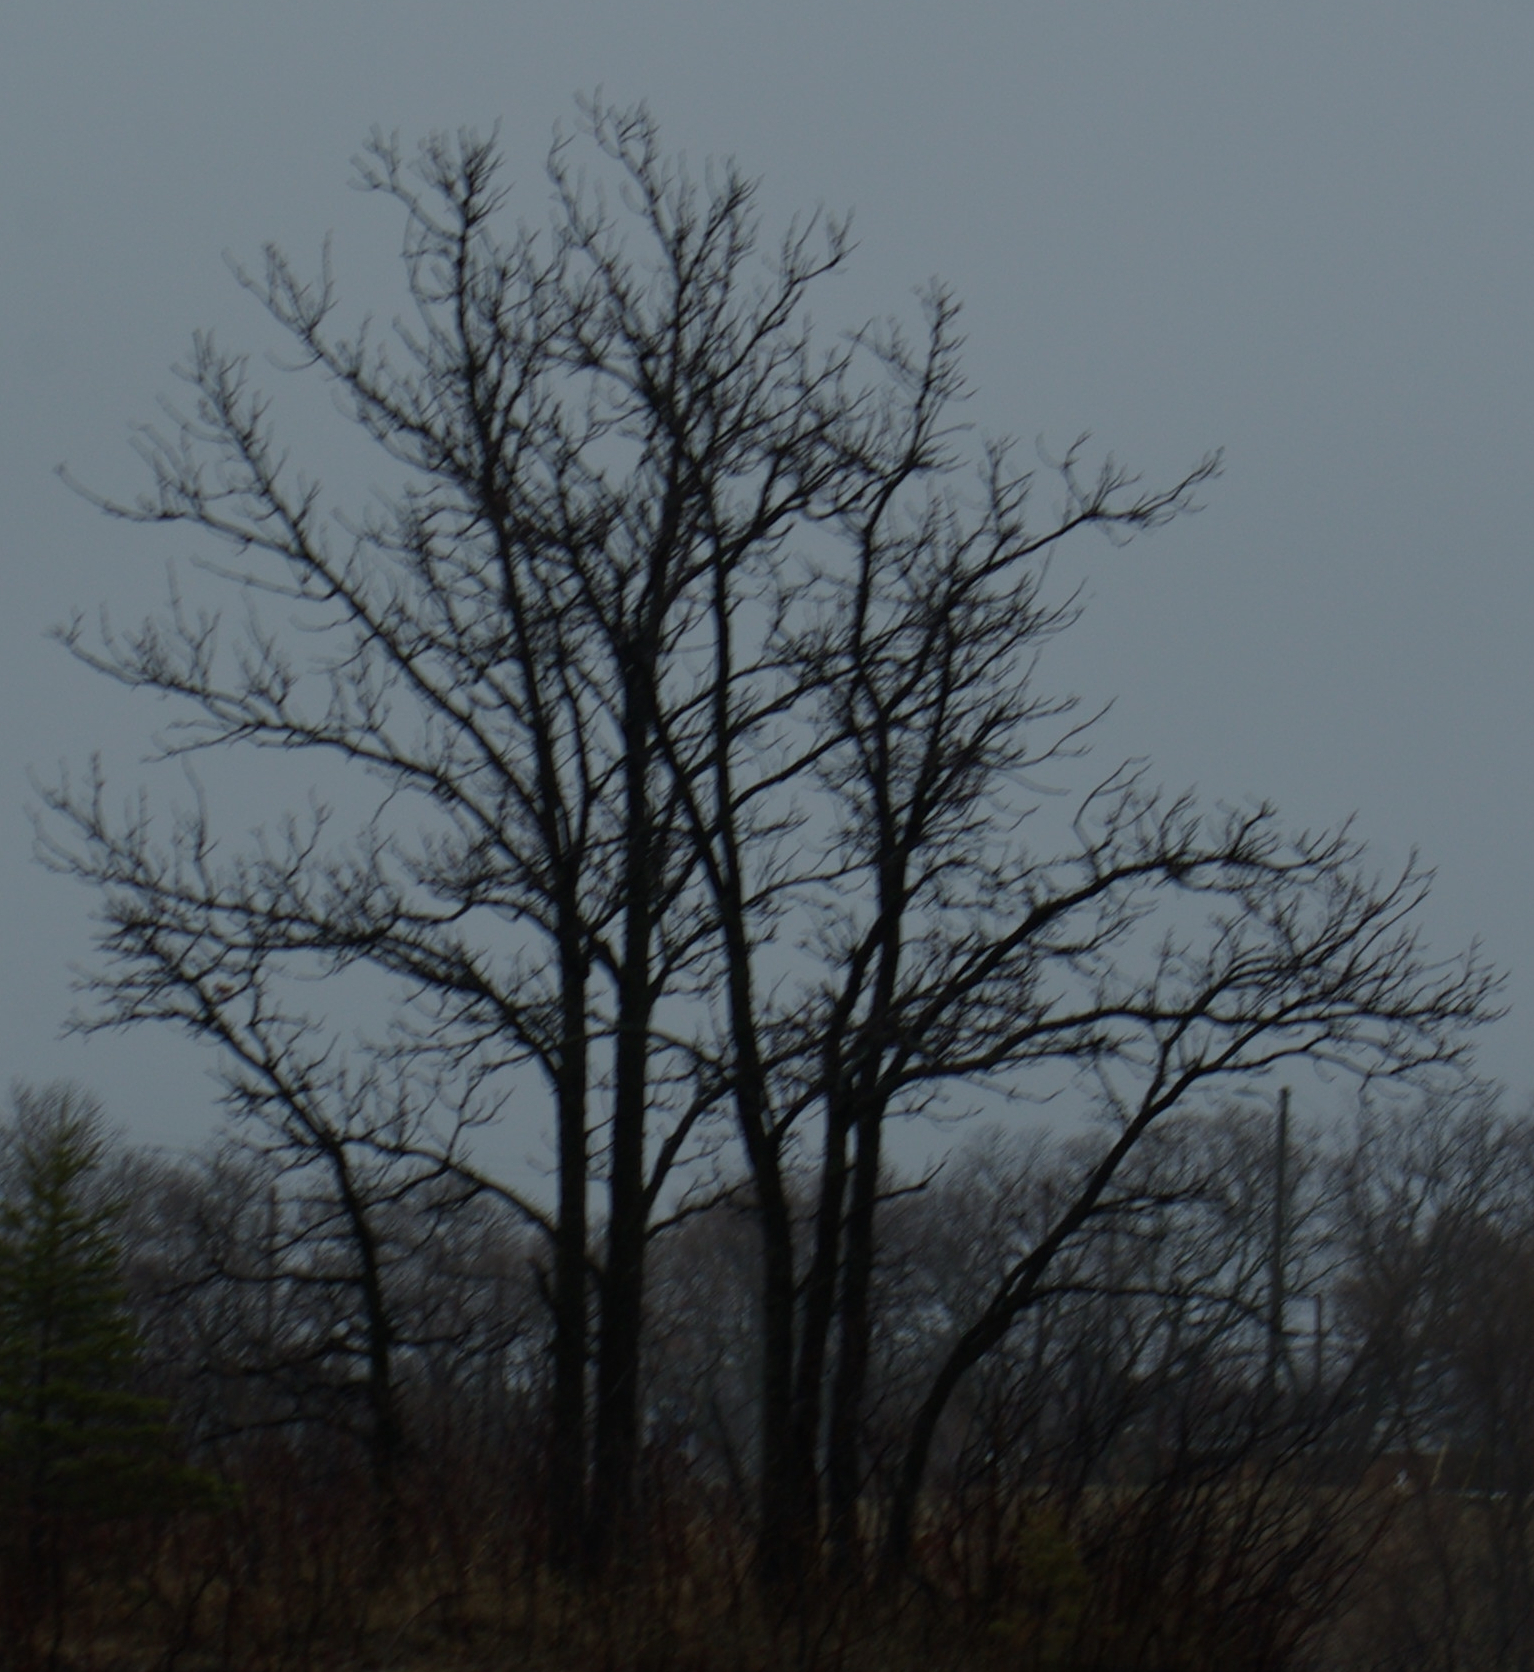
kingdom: Plantae
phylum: Tracheophyta
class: Magnoliopsida
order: Fagales
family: Fagaceae
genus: Quercus
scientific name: Quercus macrocarpa
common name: Bur oak
